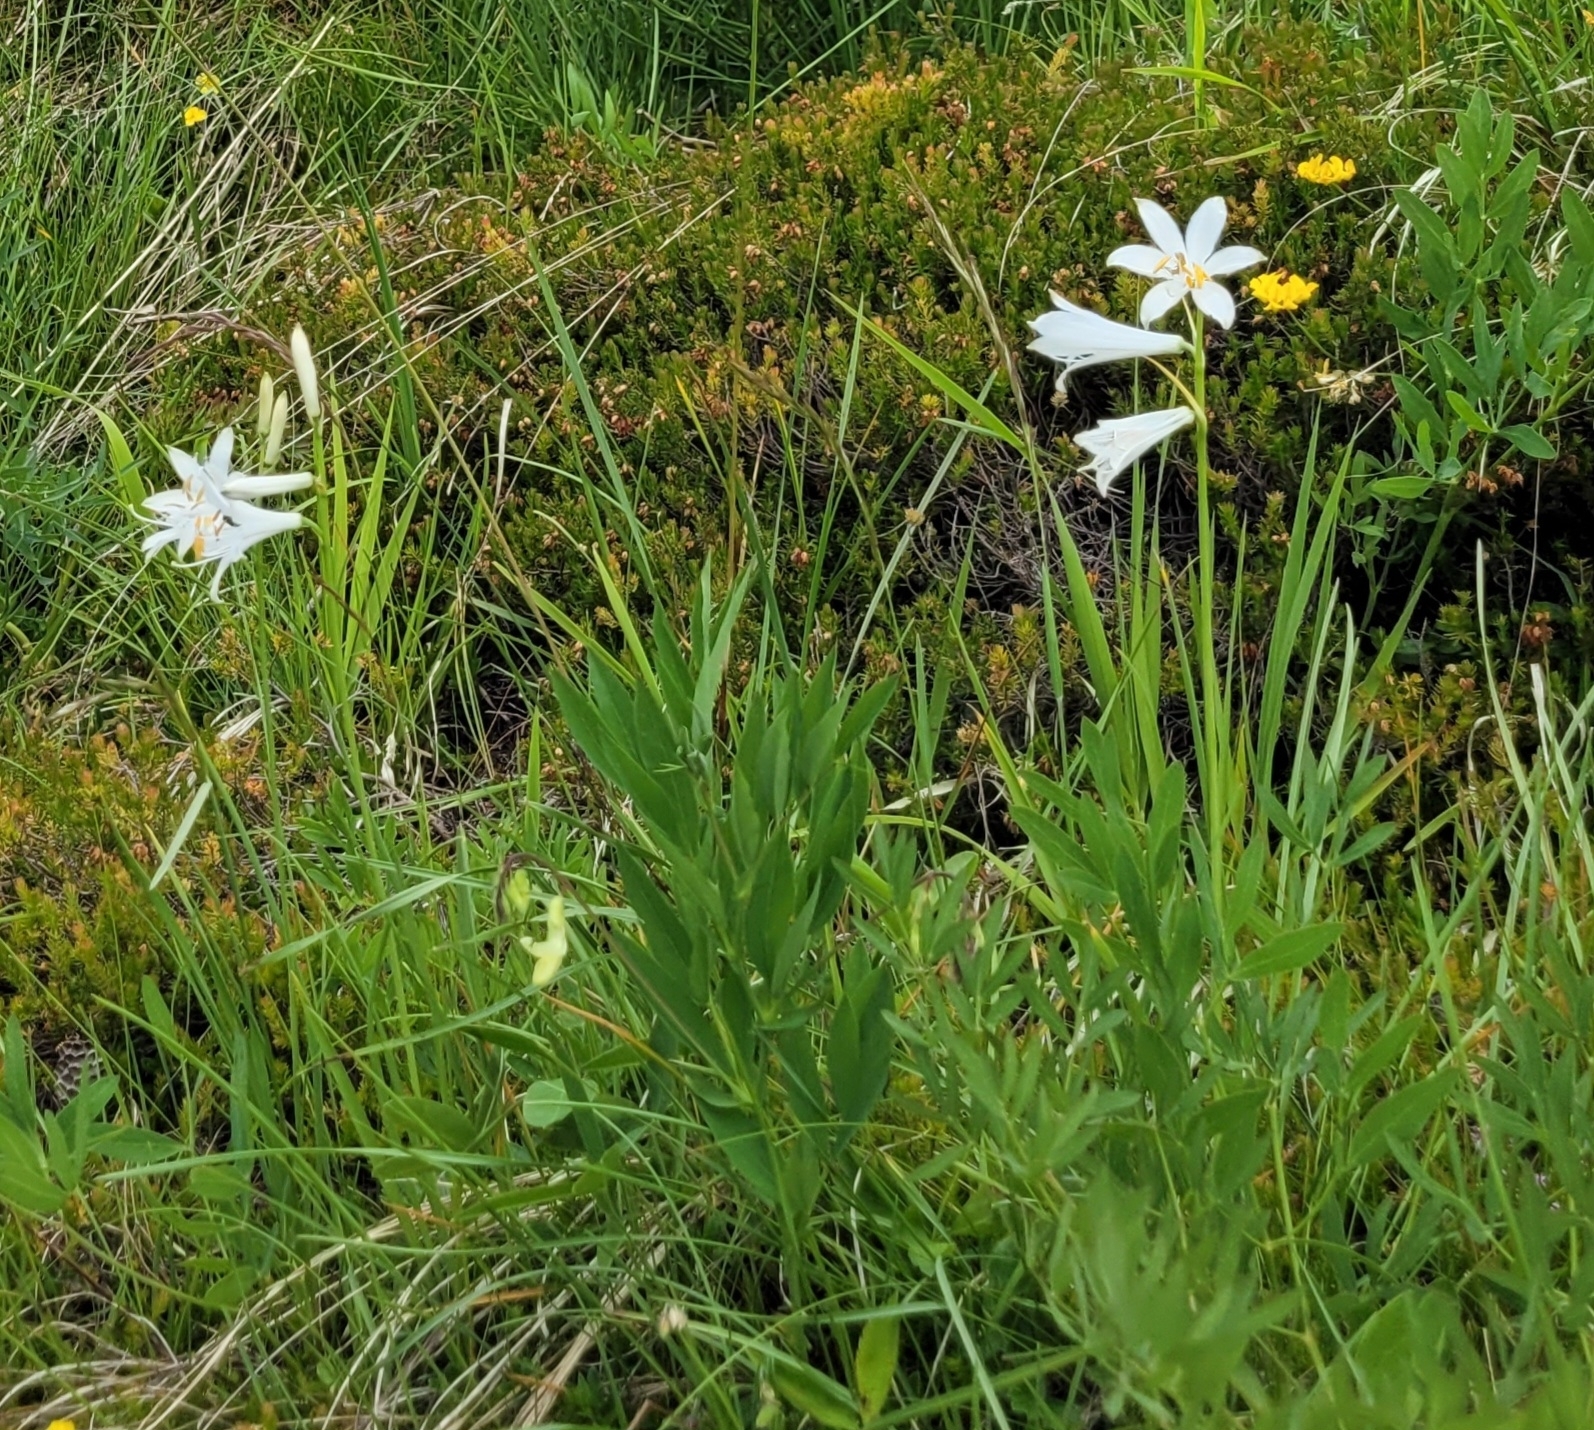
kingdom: Plantae
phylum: Tracheophyta
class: Liliopsida
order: Asparagales
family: Asparagaceae
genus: Paradisea
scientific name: Paradisea liliastrum
